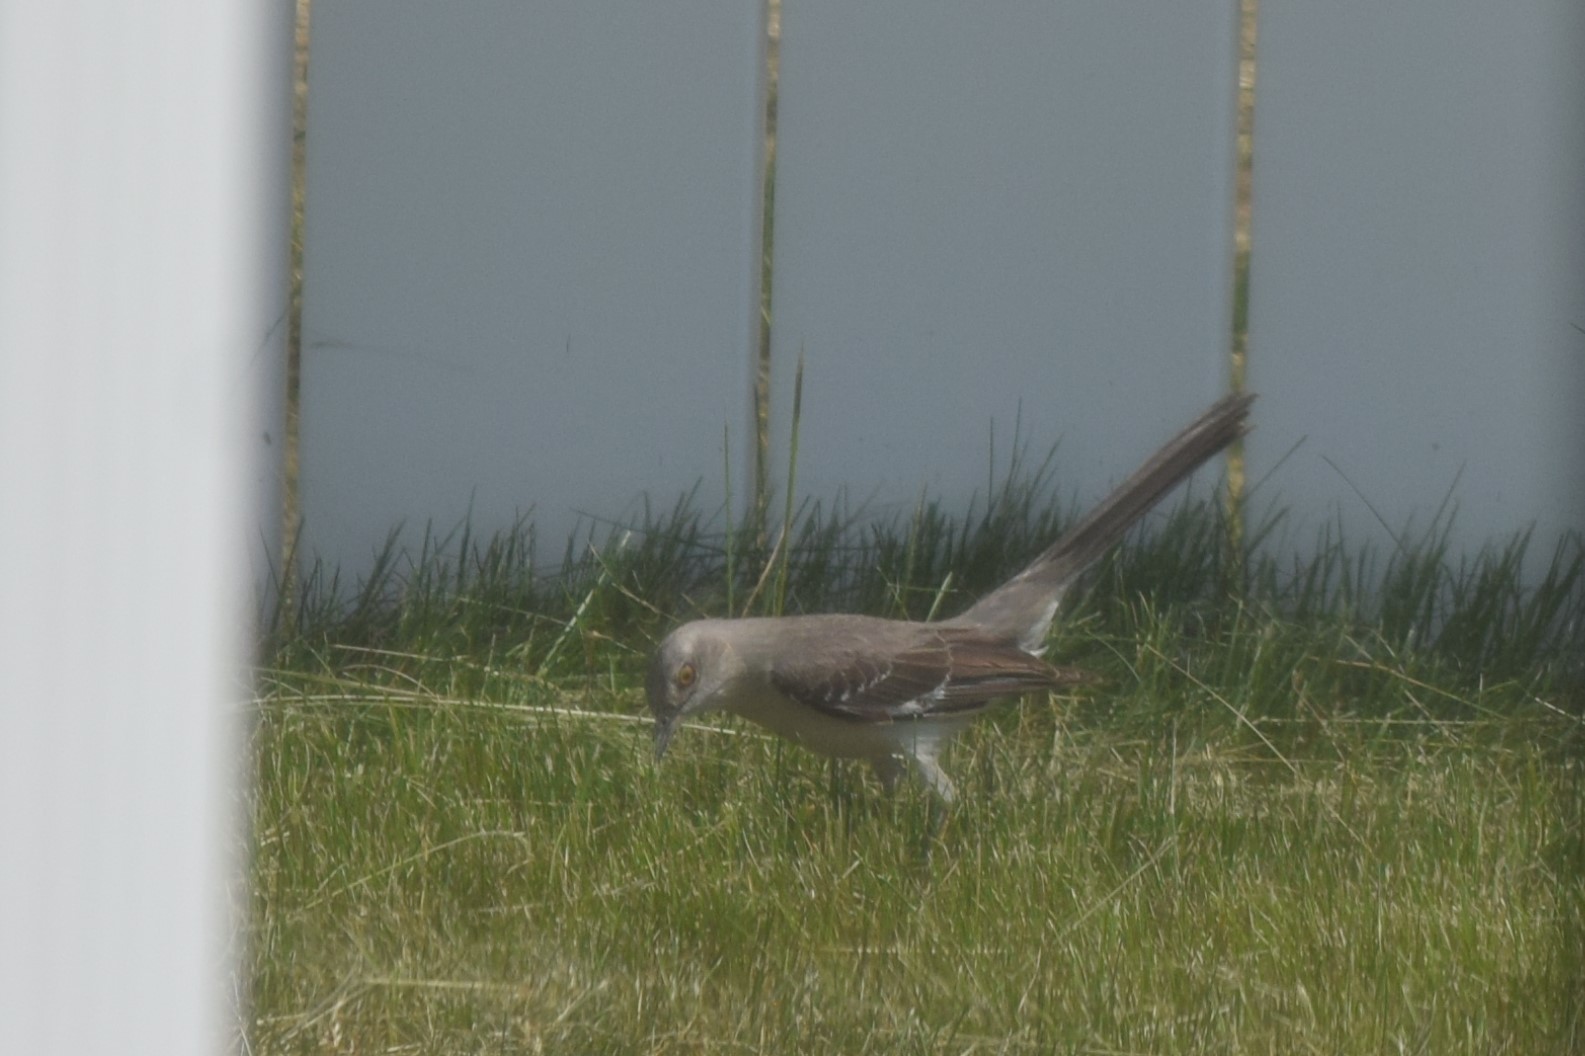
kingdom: Animalia
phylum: Chordata
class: Aves
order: Passeriformes
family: Mimidae
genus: Mimus
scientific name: Mimus polyglottos
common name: Northern mockingbird
